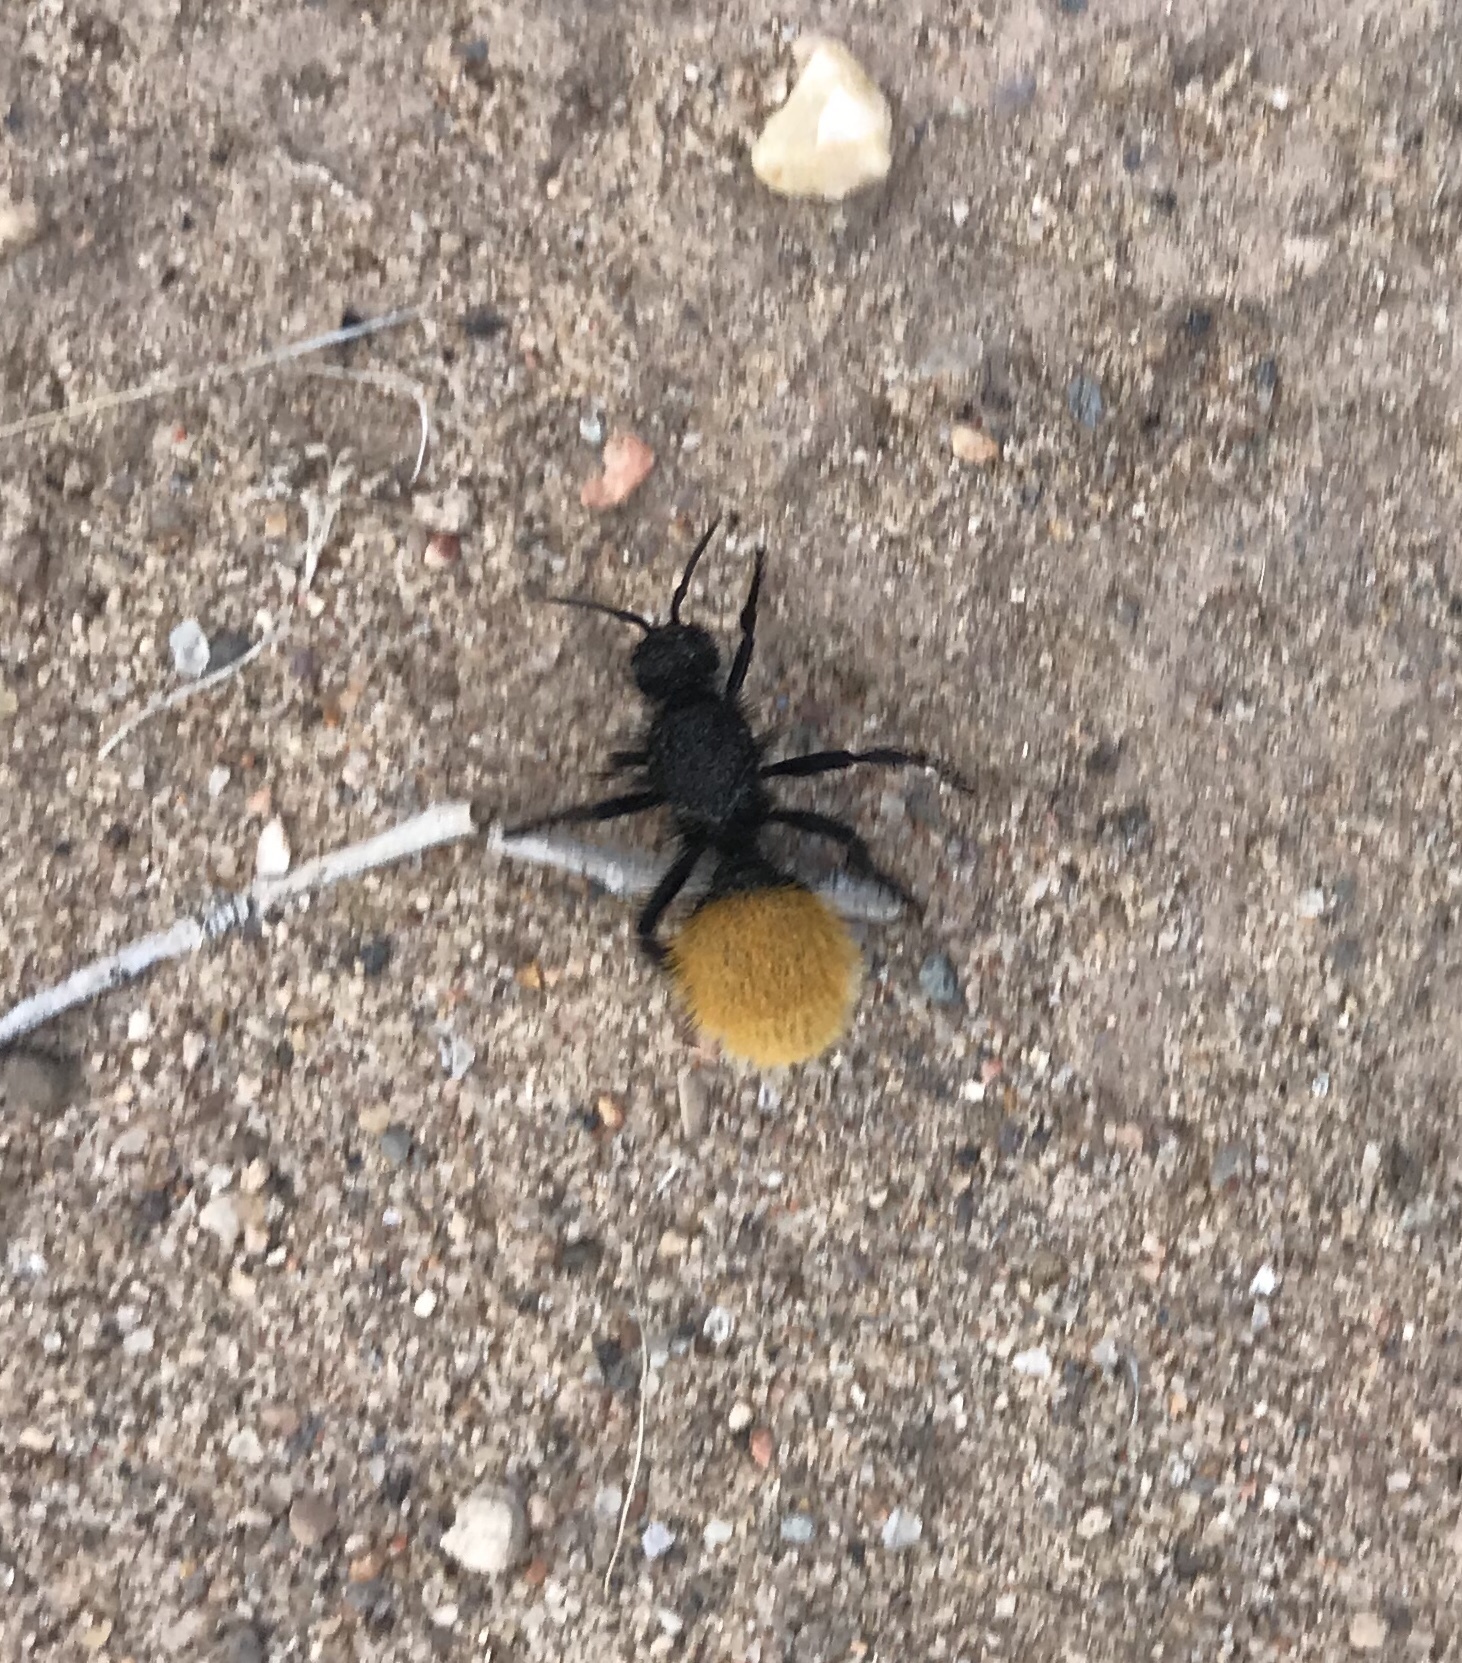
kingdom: Animalia
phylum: Arthropoda
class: Insecta
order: Hymenoptera
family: Mutillidae
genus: Dasymutilla
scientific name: Dasymutilla
